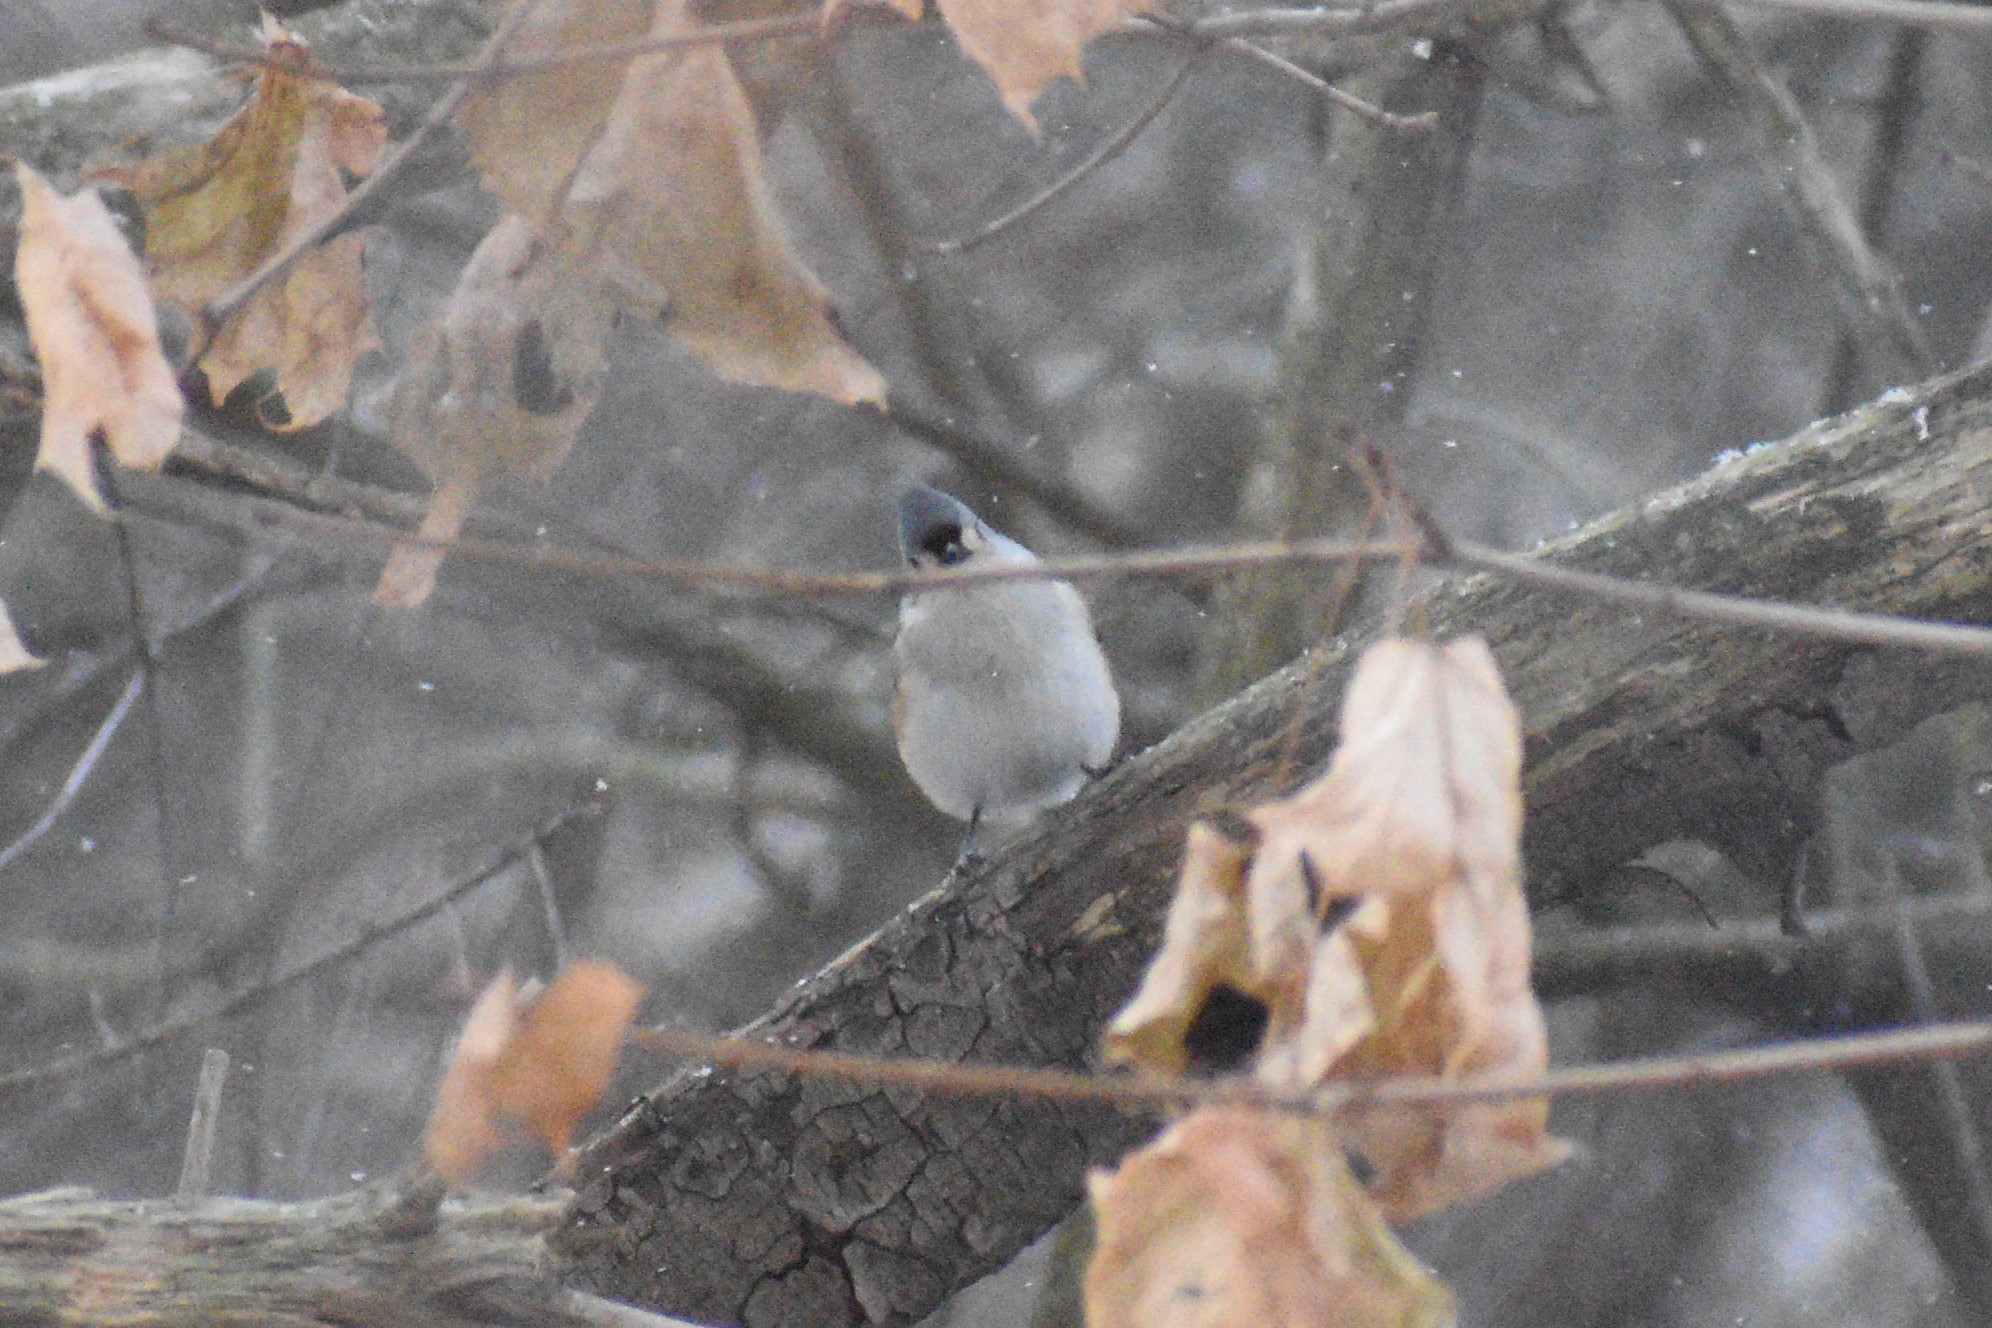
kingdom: Animalia
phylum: Chordata
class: Aves
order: Passeriformes
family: Paridae
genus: Baeolophus
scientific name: Baeolophus bicolor
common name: Tufted titmouse
